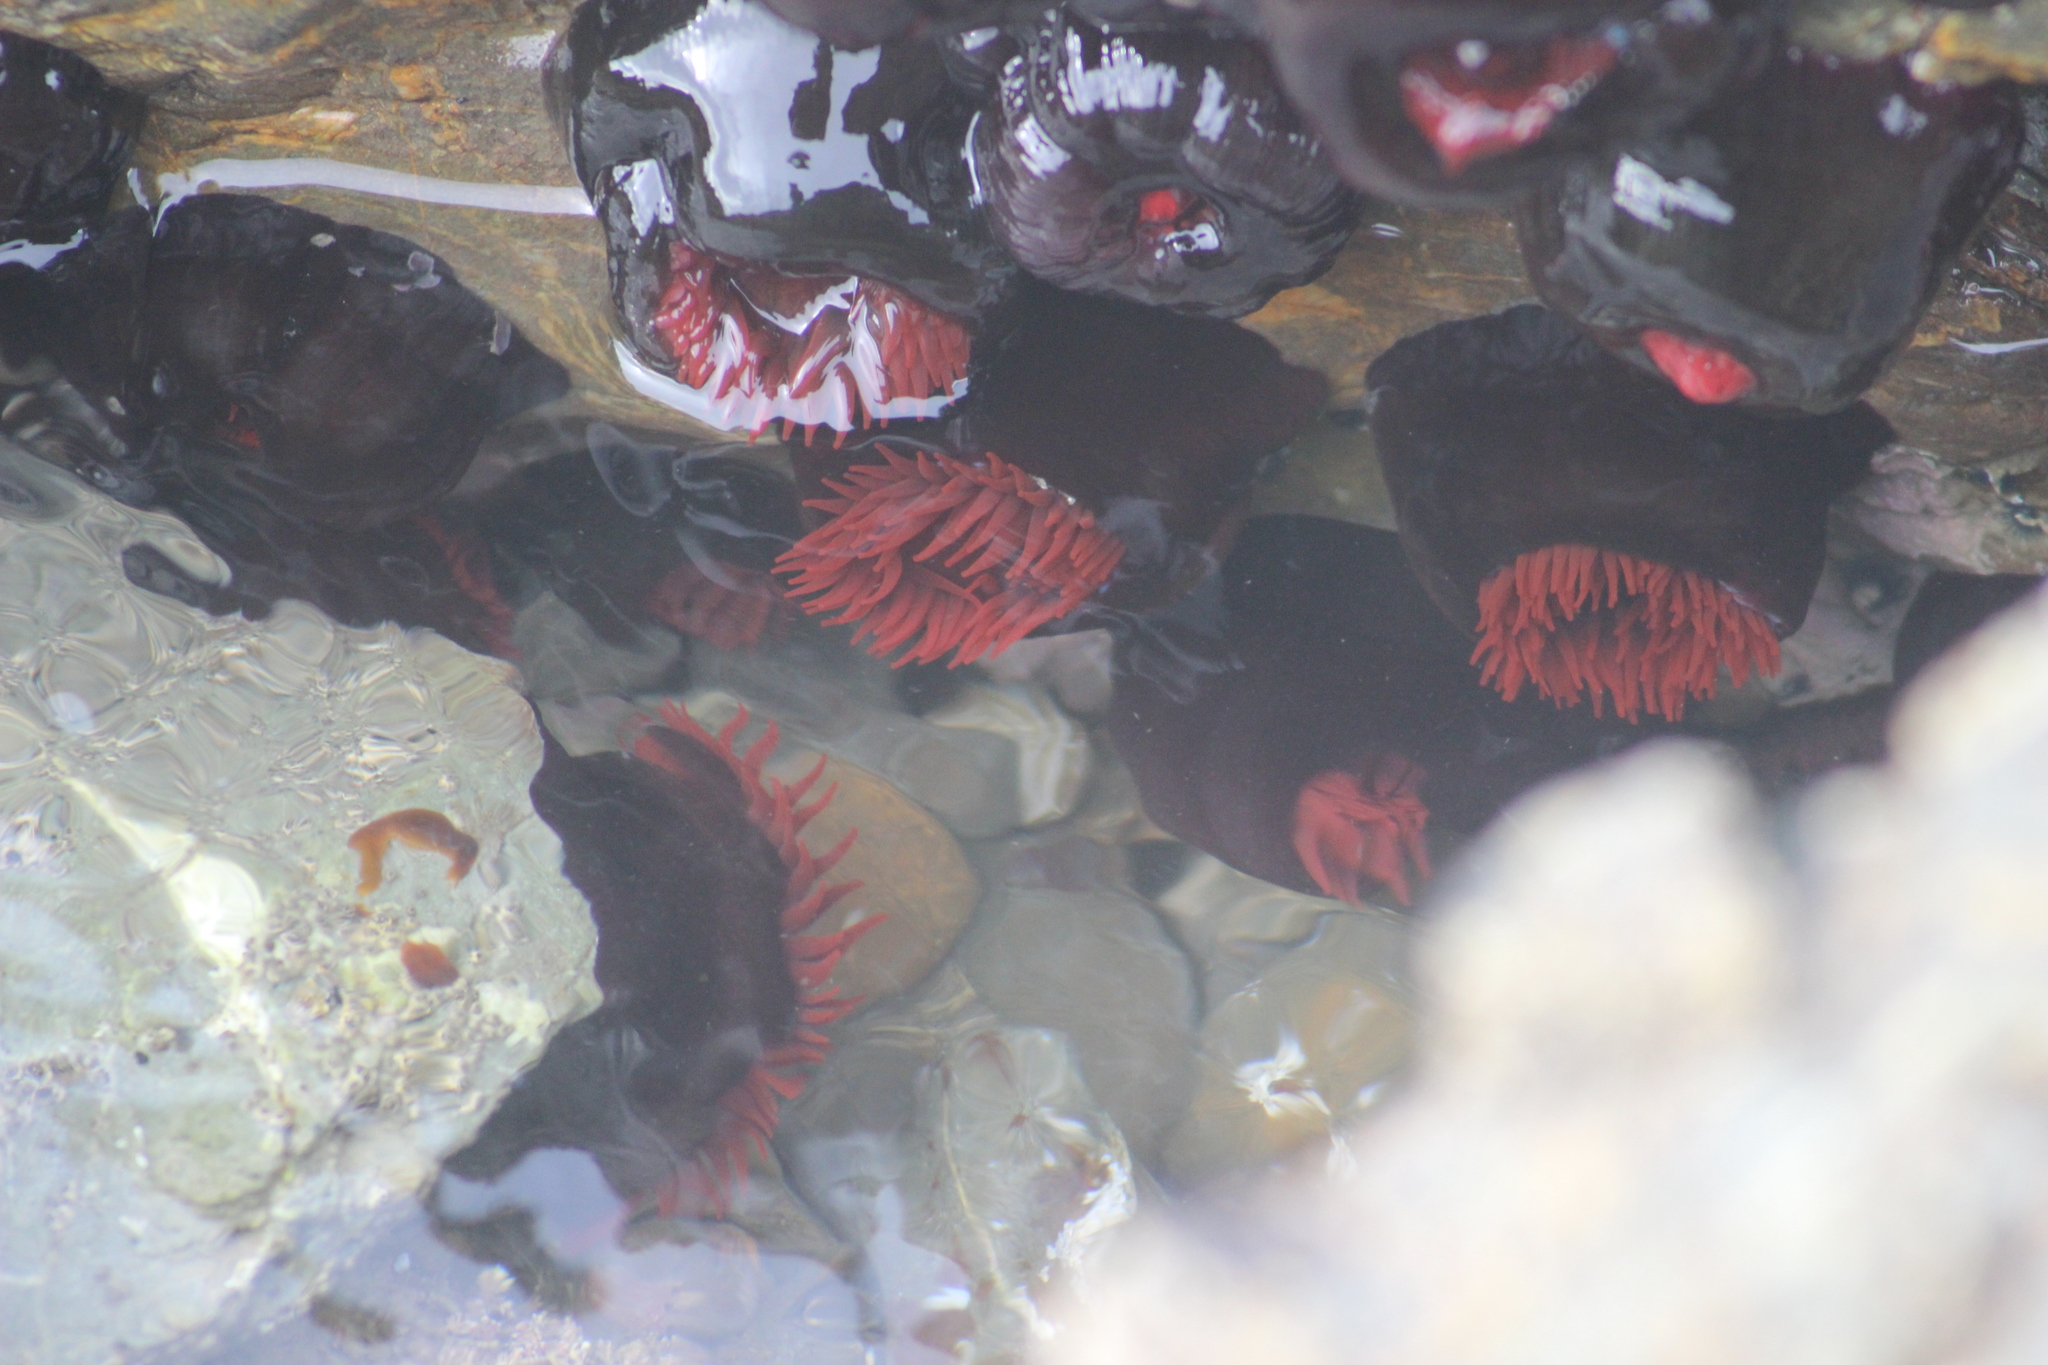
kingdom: Animalia
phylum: Cnidaria
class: Anthozoa
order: Actiniaria
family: Actiniidae
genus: Actinia
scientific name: Actinia tenebrosa
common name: Waratah anemone
